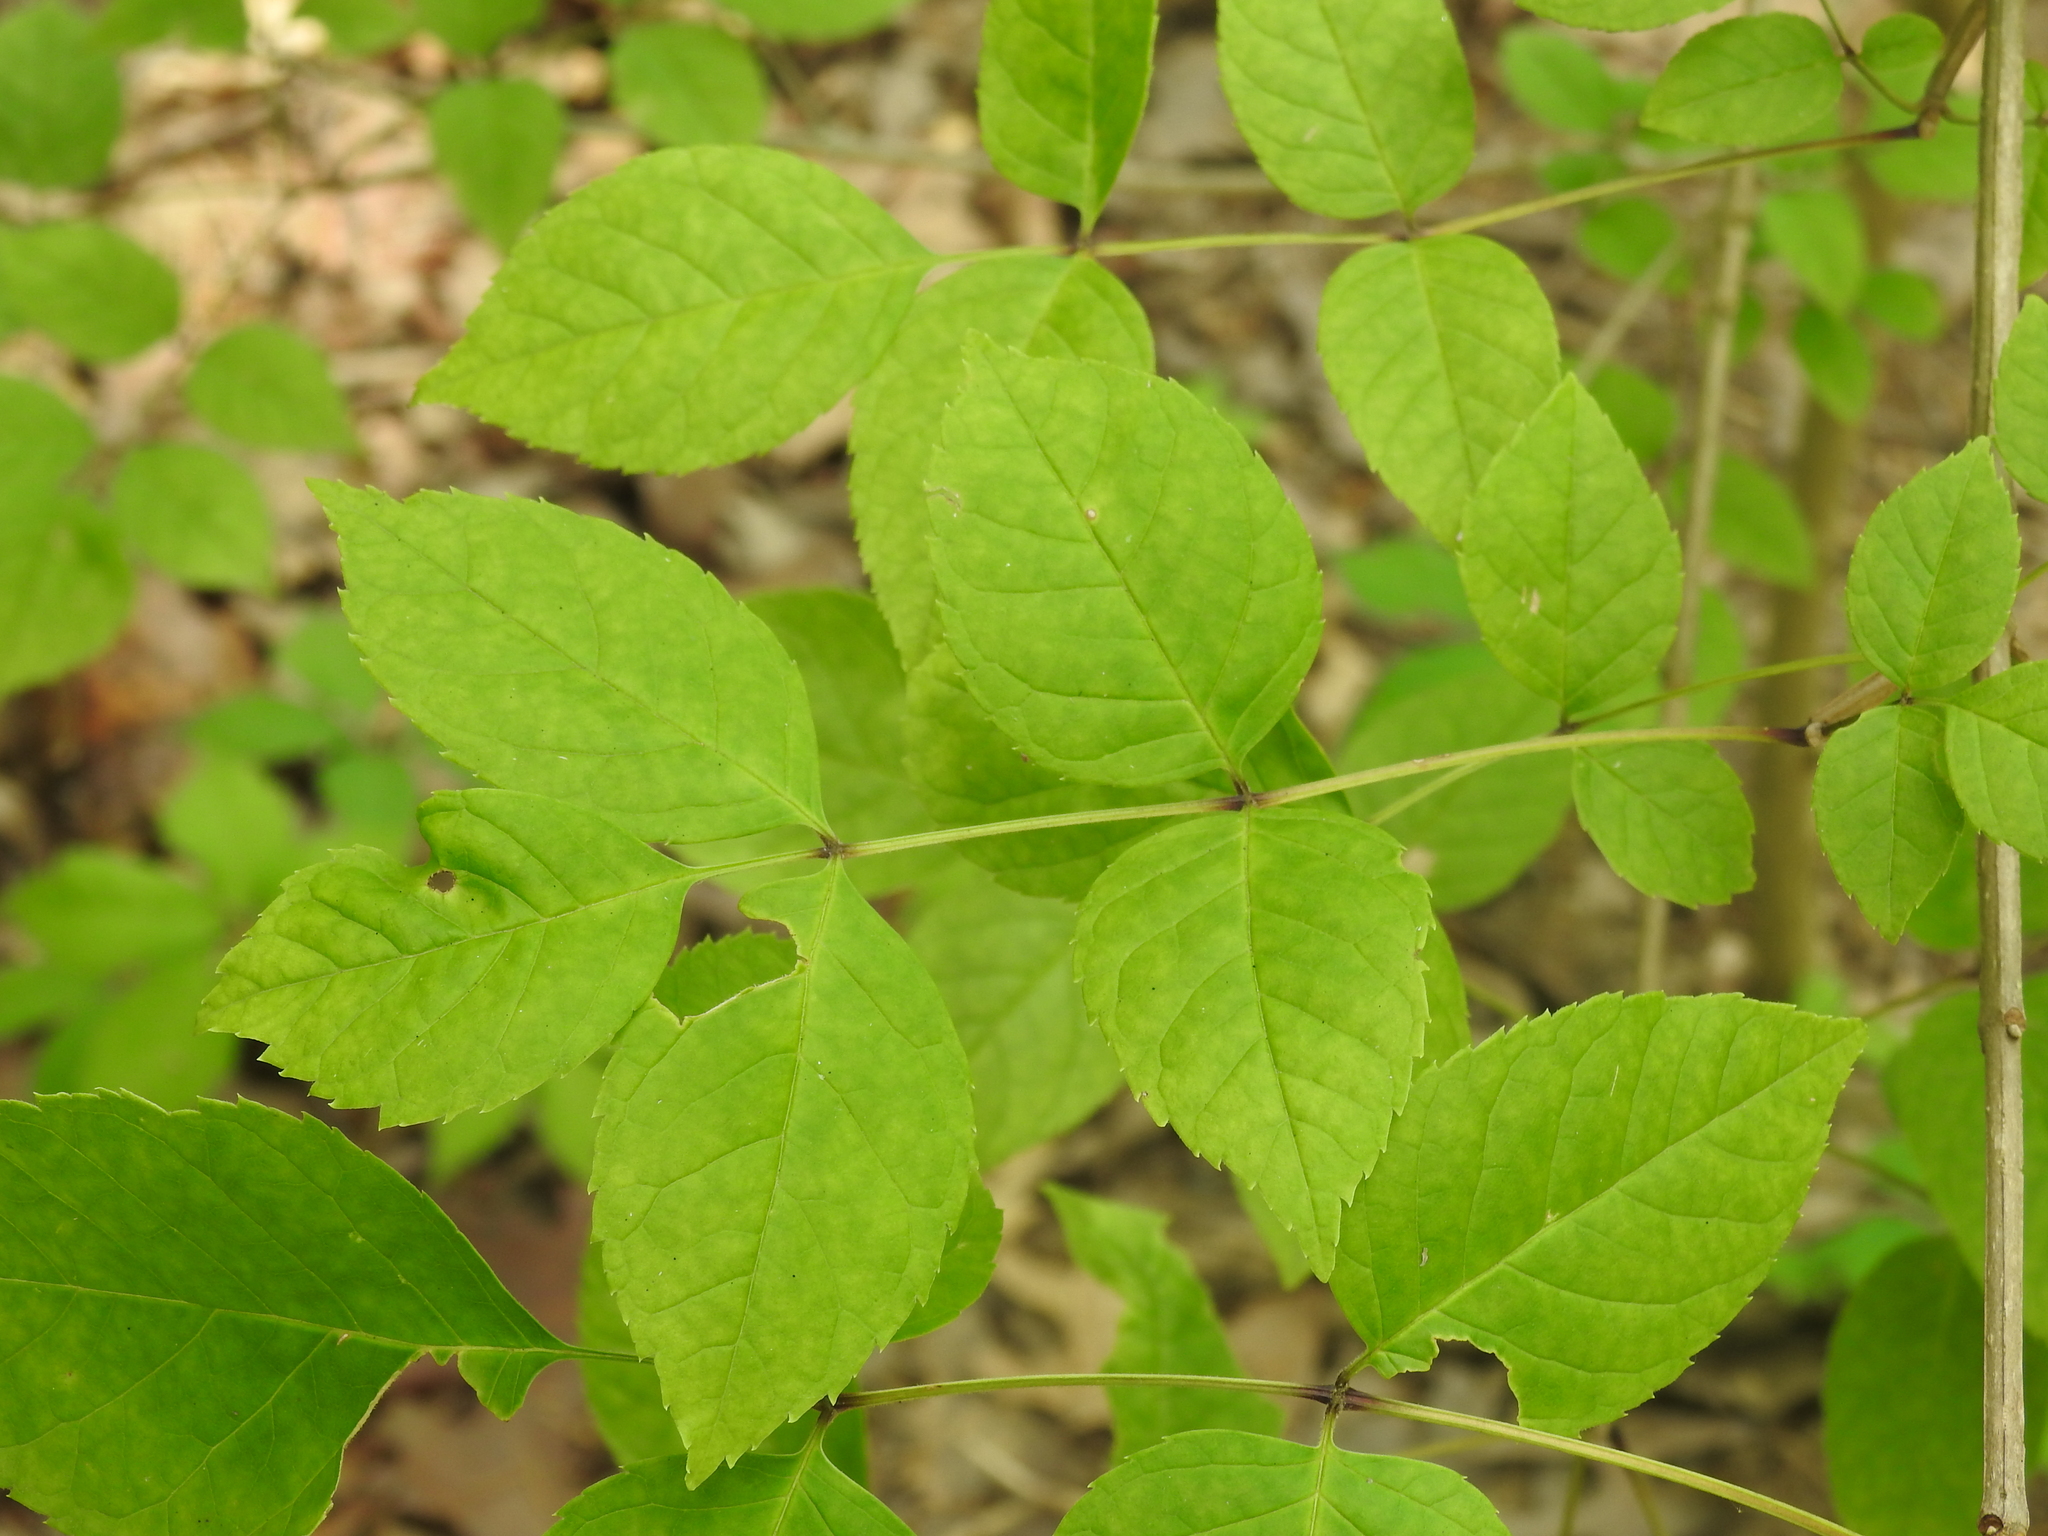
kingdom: Plantae
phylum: Tracheophyta
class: Magnoliopsida
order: Lamiales
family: Oleaceae
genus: Fraxinus
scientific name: Fraxinus quadrangulata
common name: Blue ash
